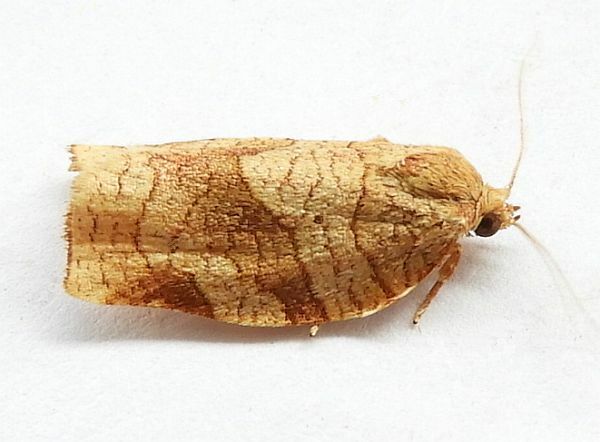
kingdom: Animalia
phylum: Arthropoda
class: Insecta
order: Lepidoptera
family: Tortricidae
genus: Choristoneura
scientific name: Choristoneura rosaceana
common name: Oblique-banded leafroller moth
